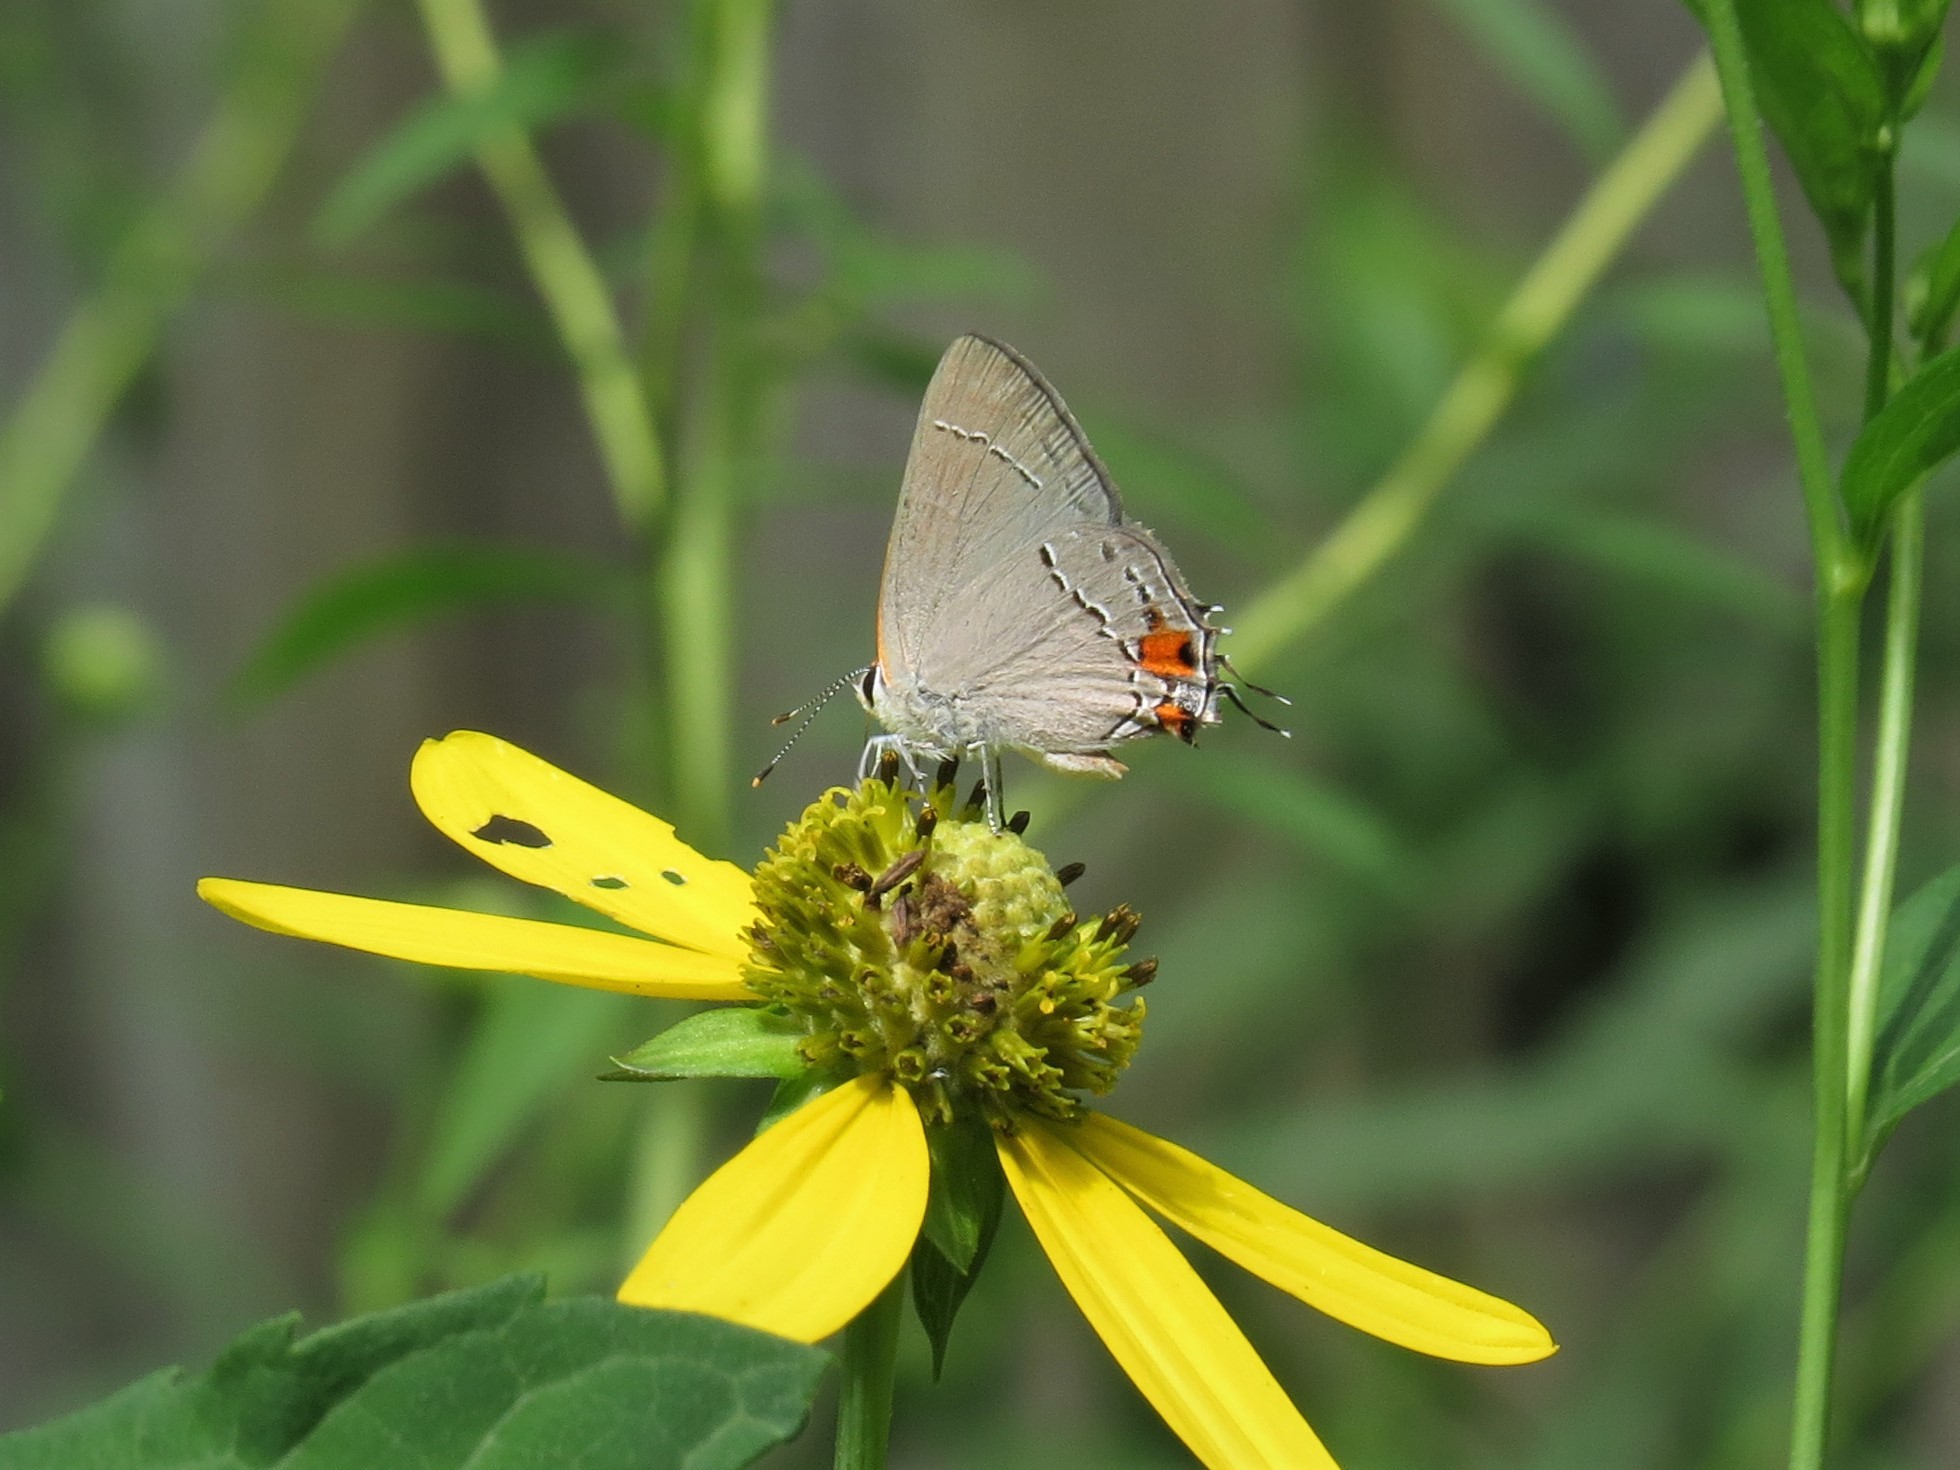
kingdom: Animalia
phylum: Arthropoda
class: Insecta
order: Lepidoptera
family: Lycaenidae
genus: Strymon
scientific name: Strymon melinus
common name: Gray hairstreak
